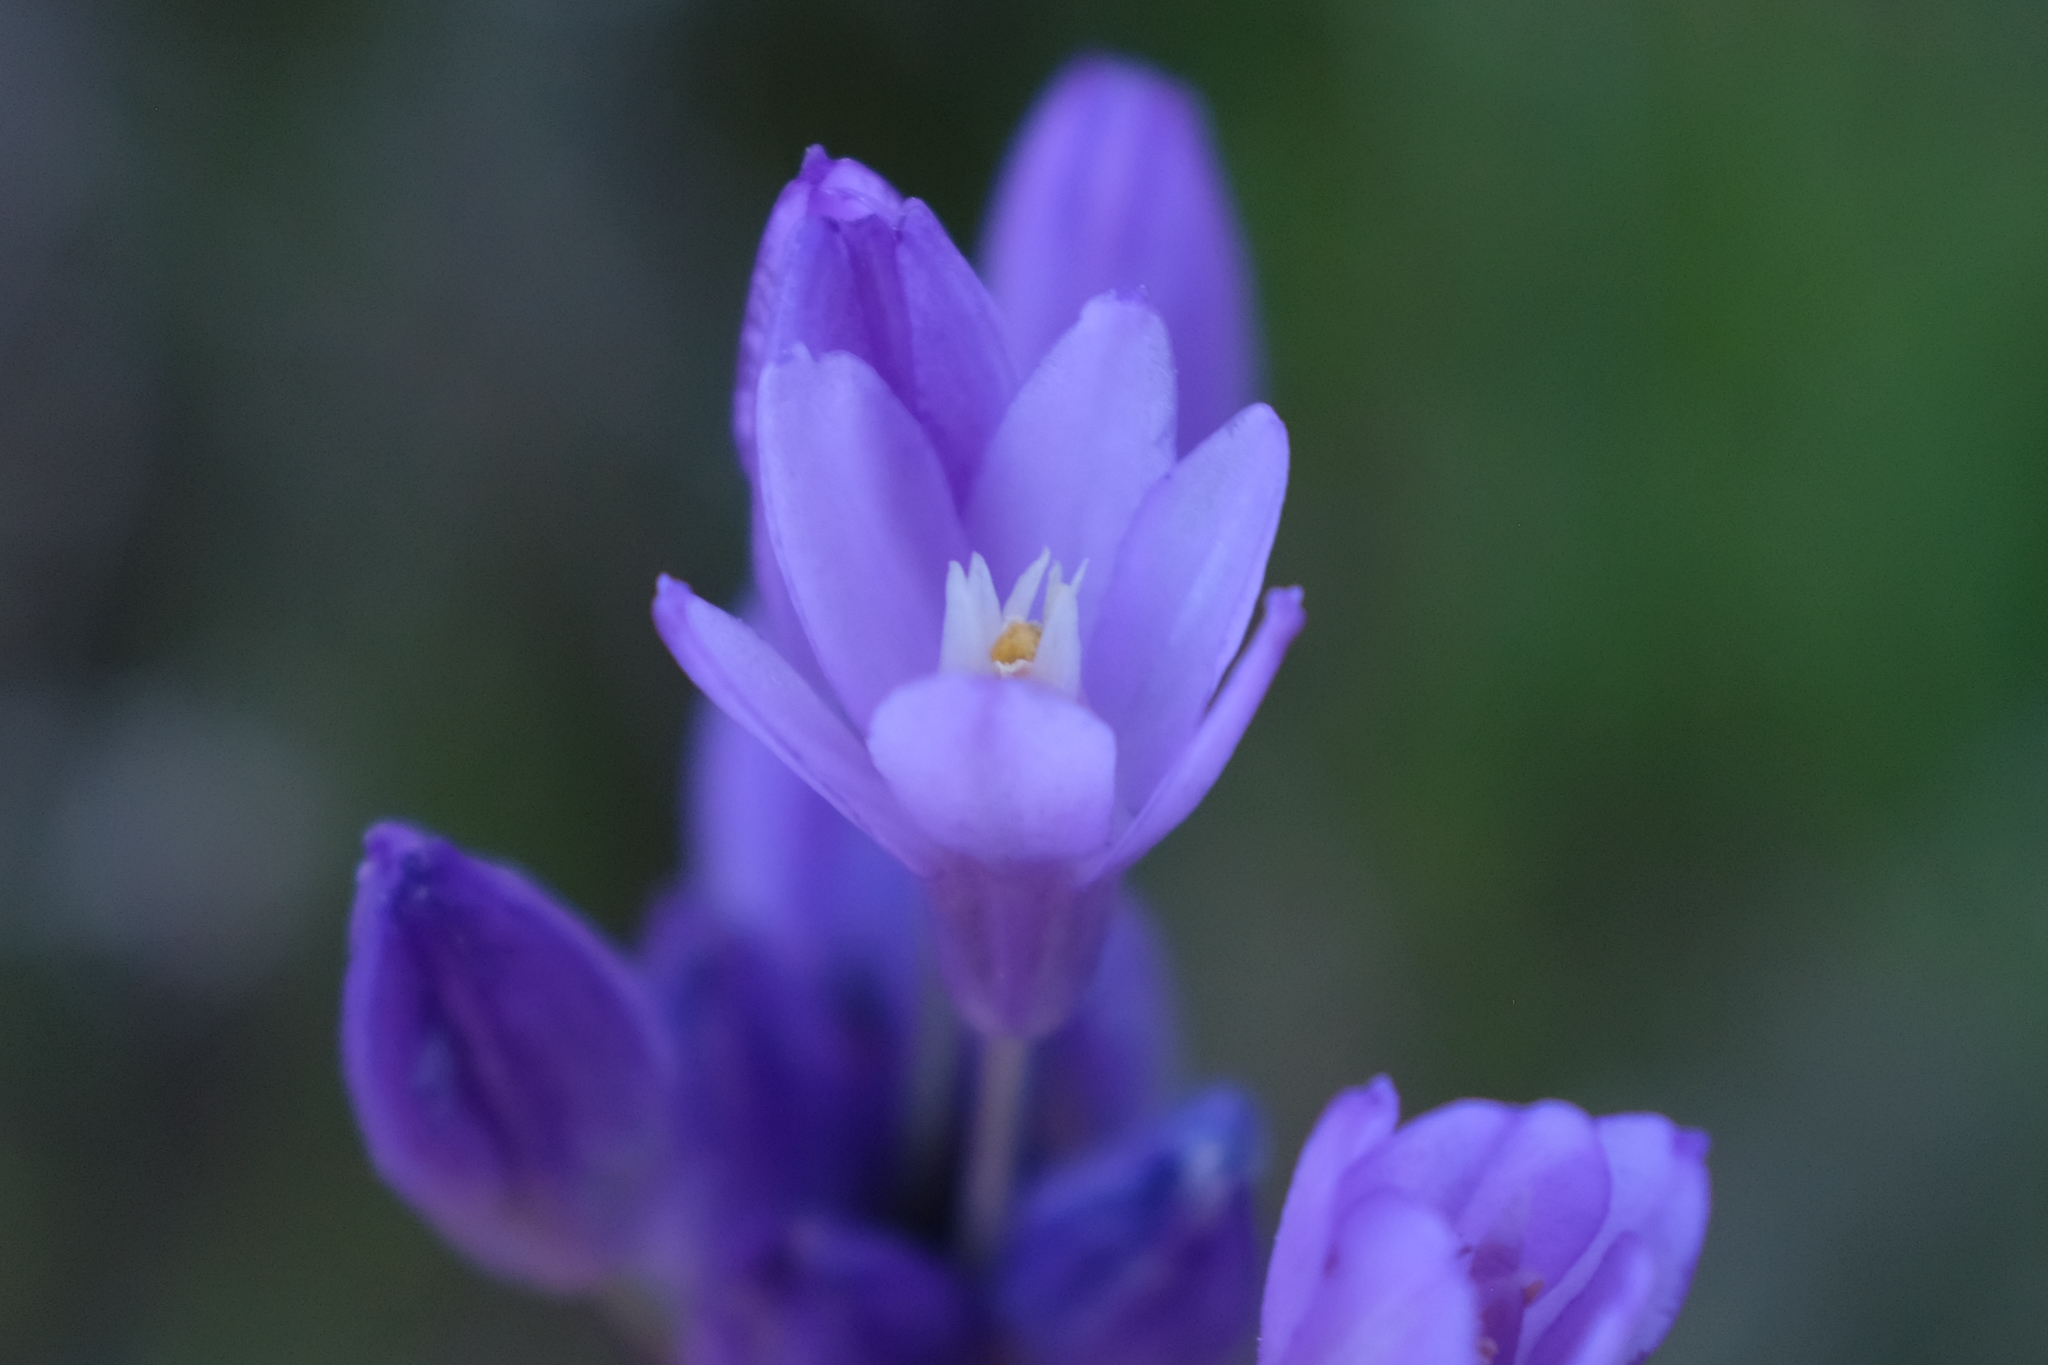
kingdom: Plantae
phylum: Tracheophyta
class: Liliopsida
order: Asparagales
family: Asparagaceae
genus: Dipterostemon
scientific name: Dipterostemon capitatus
